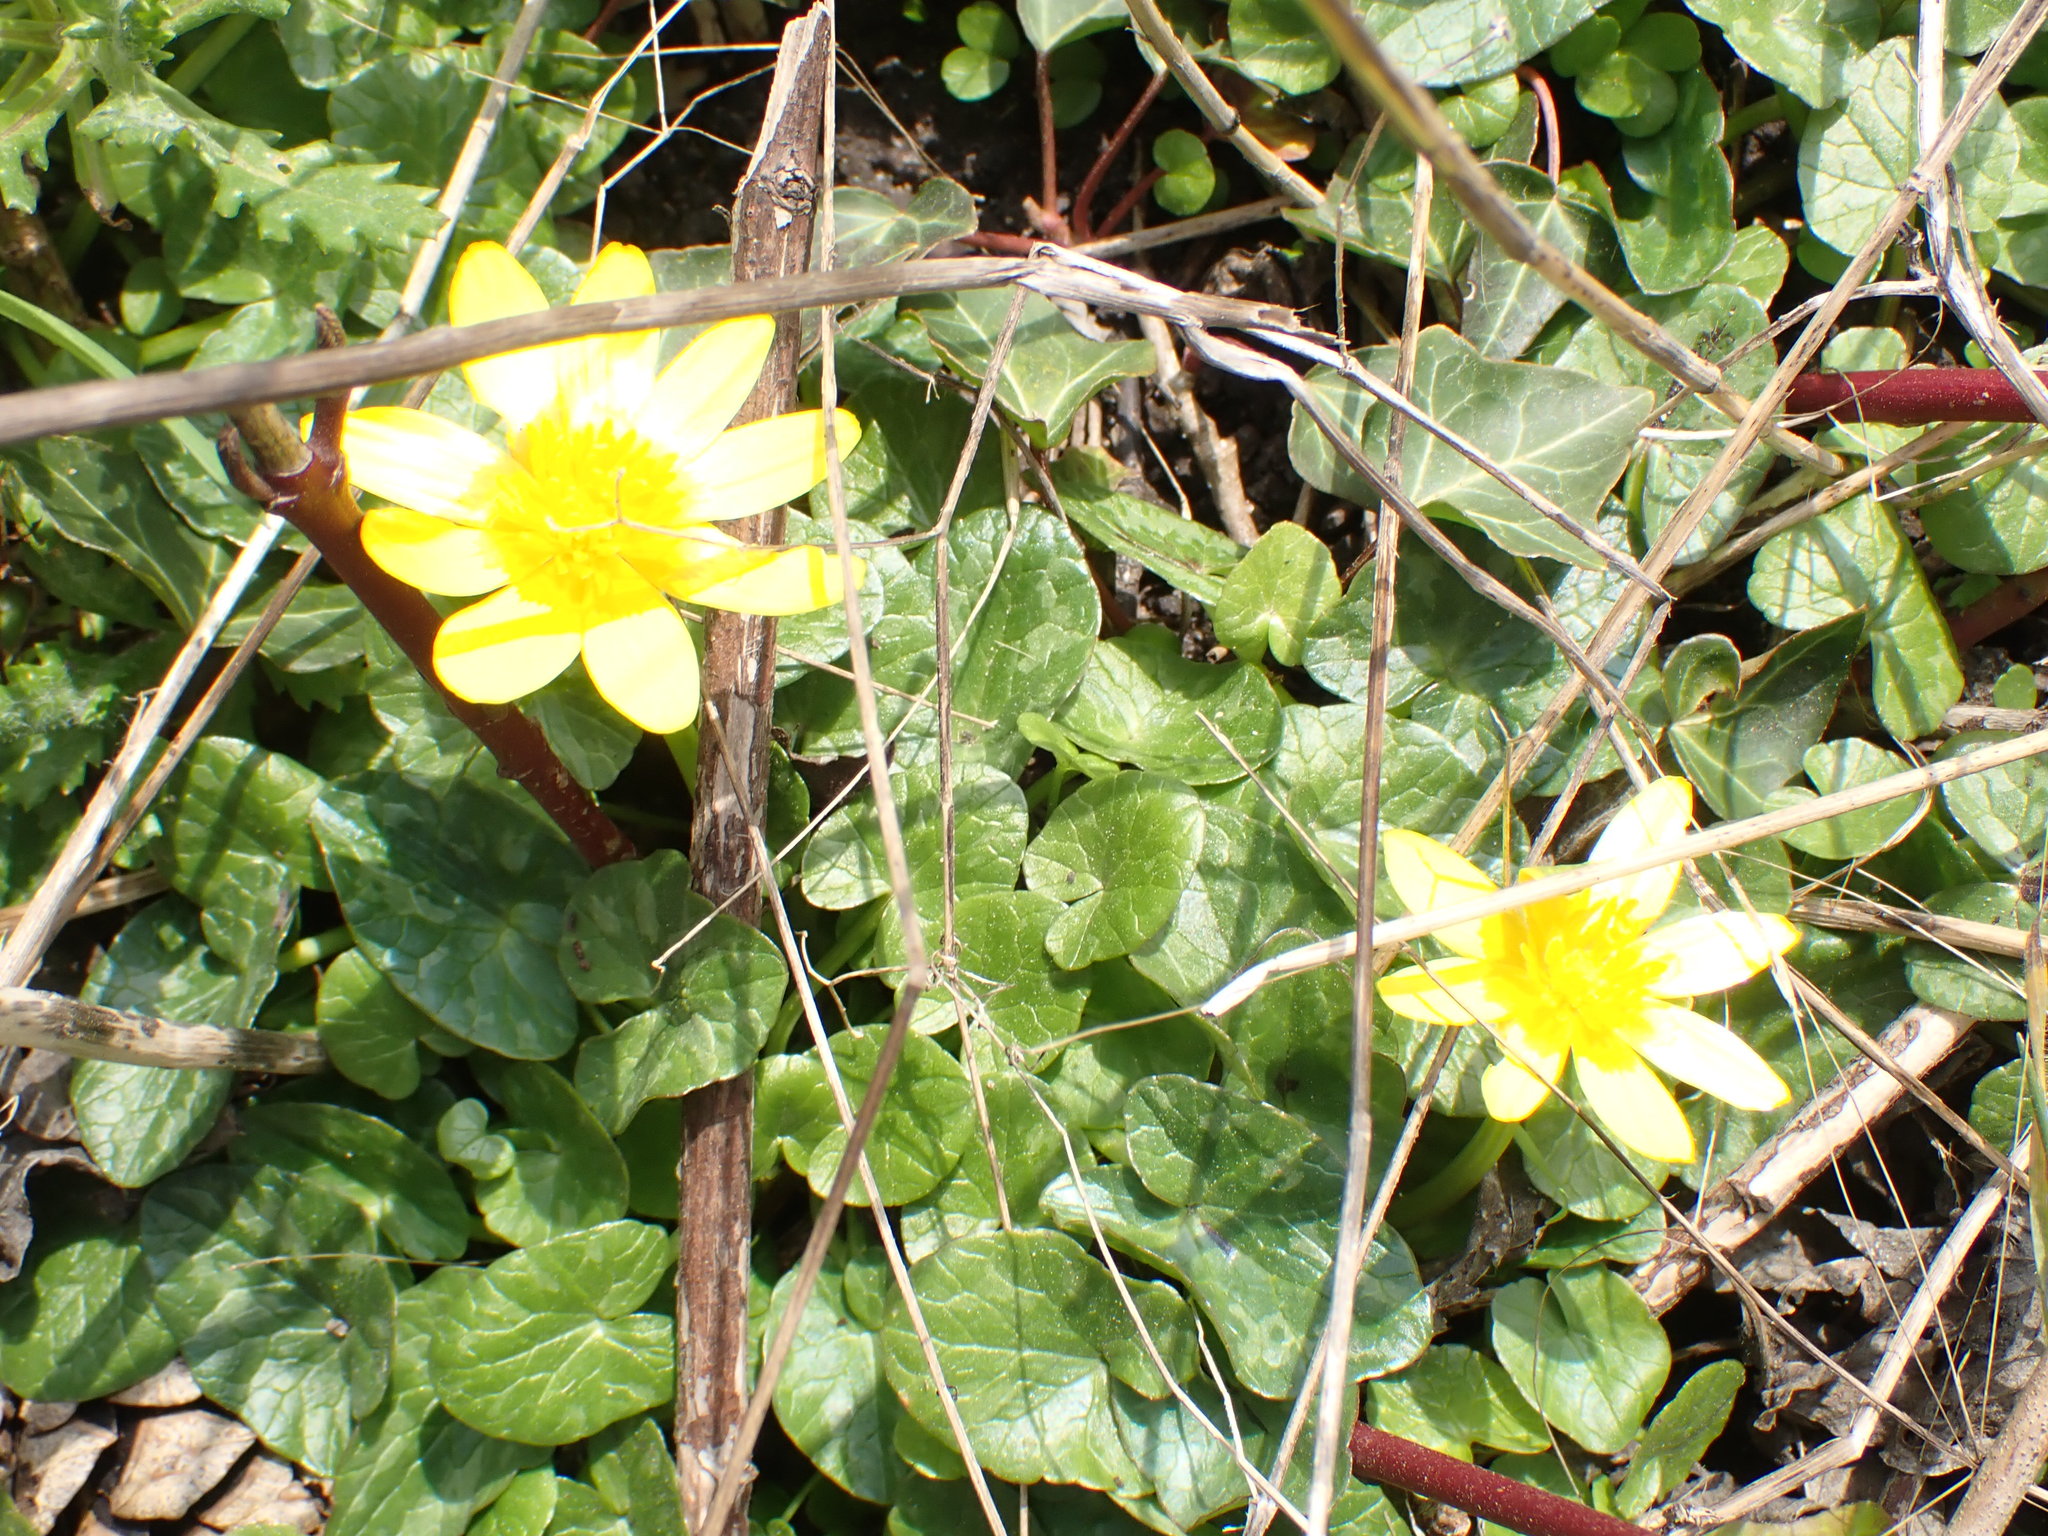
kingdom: Plantae
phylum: Tracheophyta
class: Magnoliopsida
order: Ranunculales
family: Ranunculaceae
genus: Ficaria
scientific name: Ficaria verna
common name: Lesser celandine
